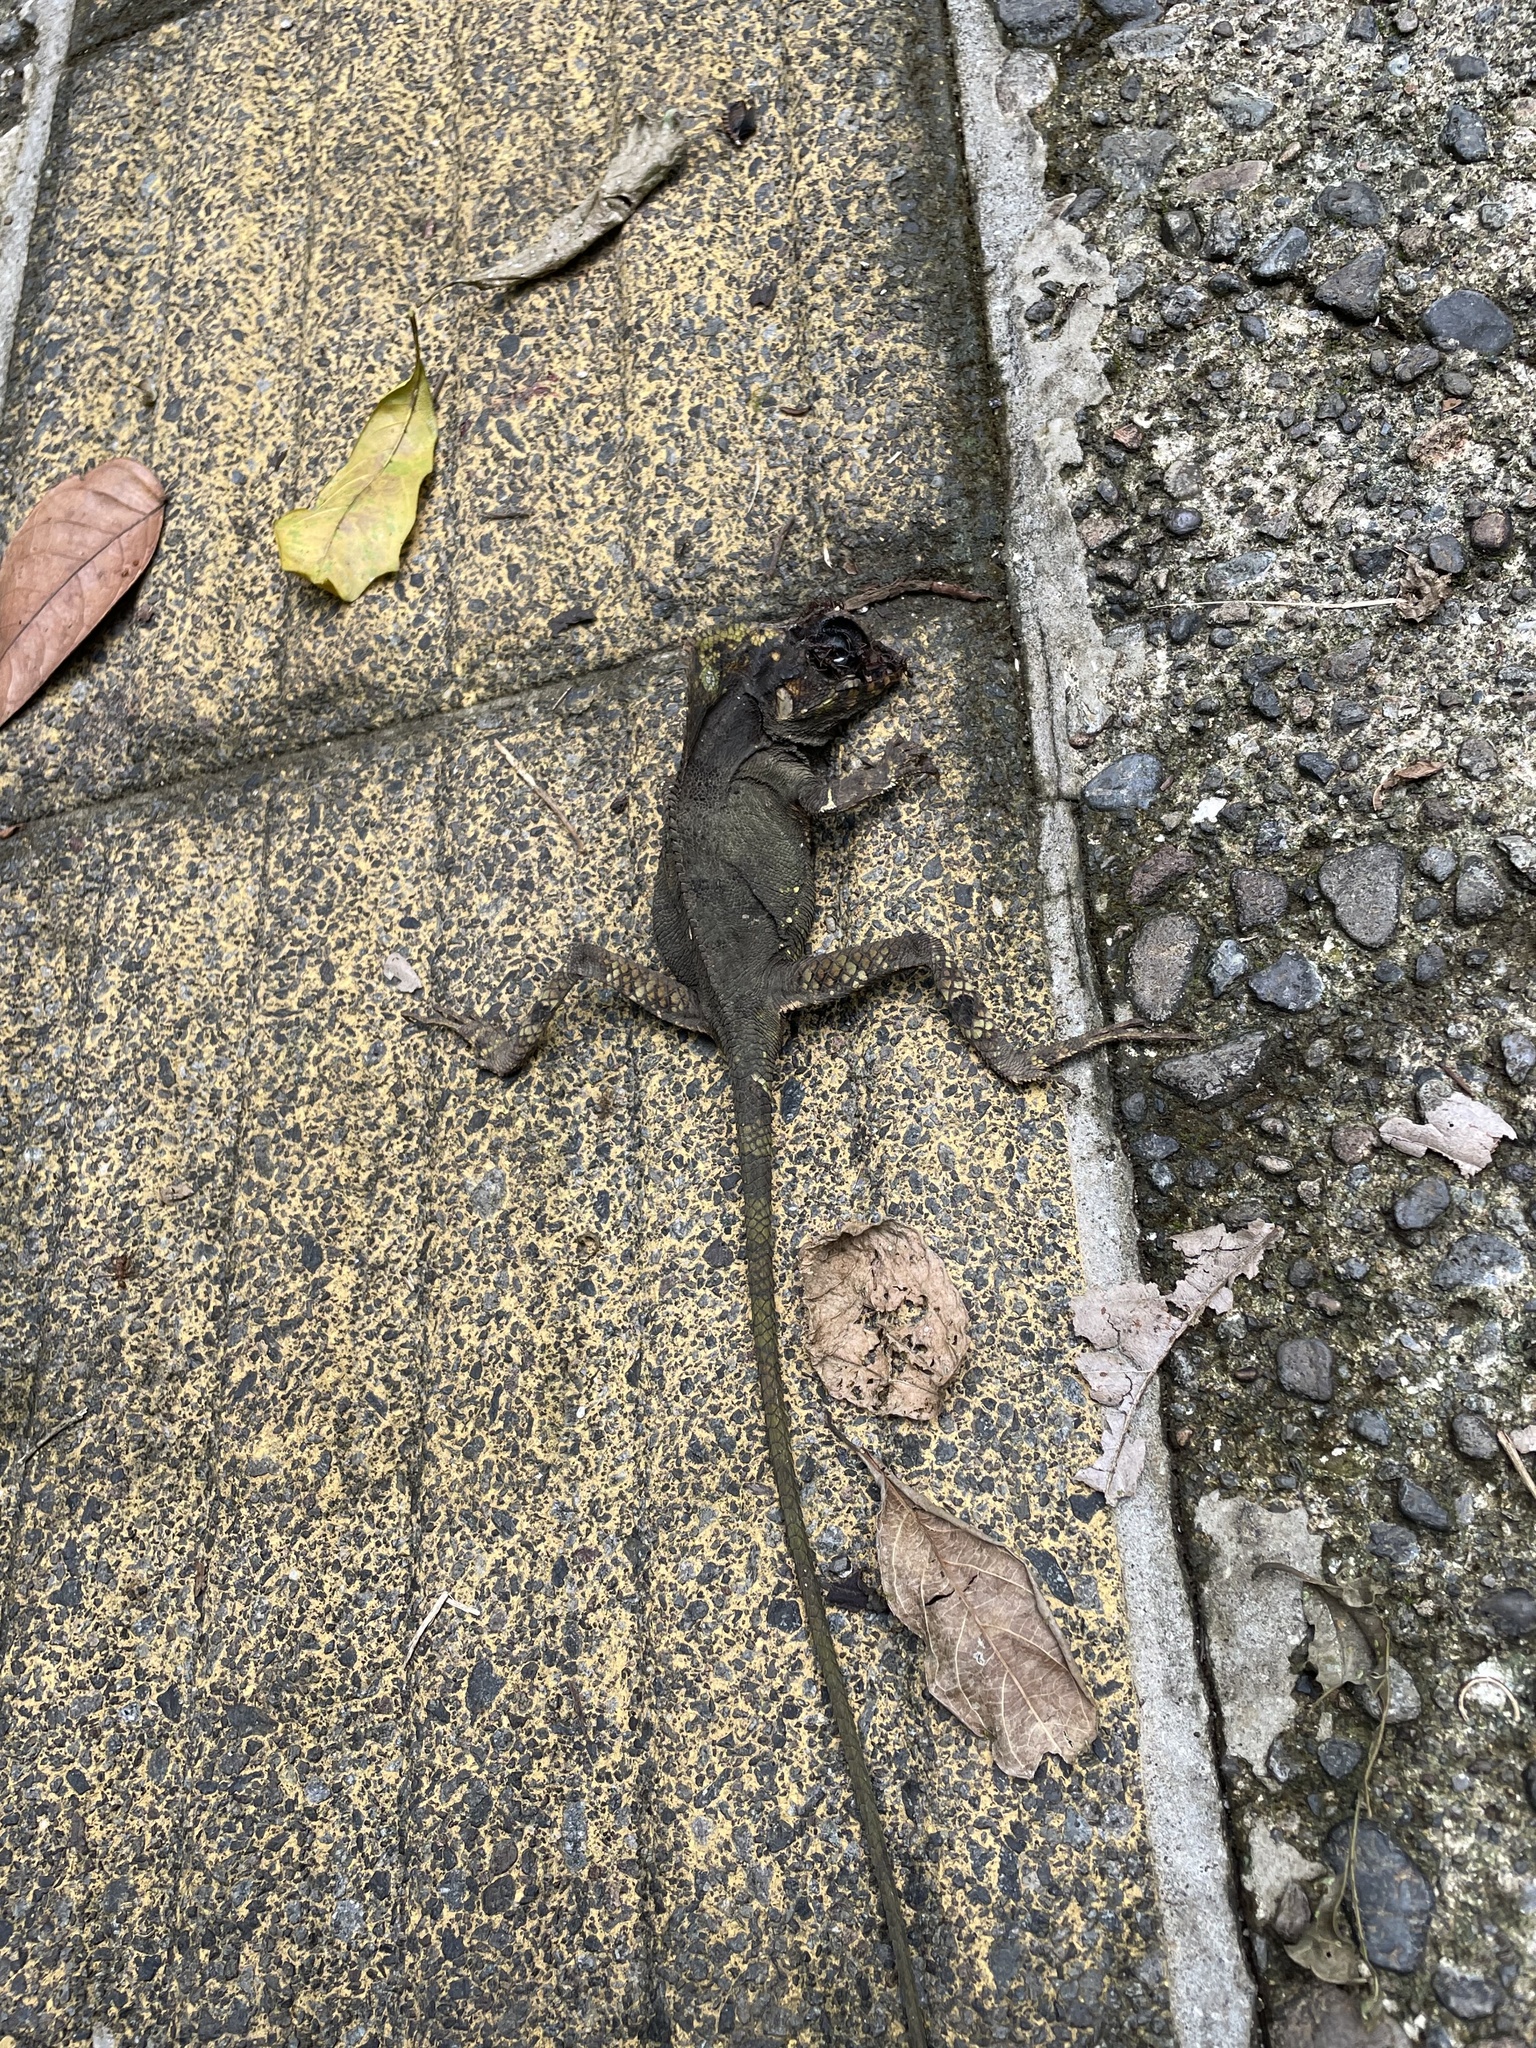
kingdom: Animalia
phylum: Chordata
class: Squamata
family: Corytophanidae
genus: Corytophanes
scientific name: Corytophanes cristatus
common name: Smooth helmeted iguana
